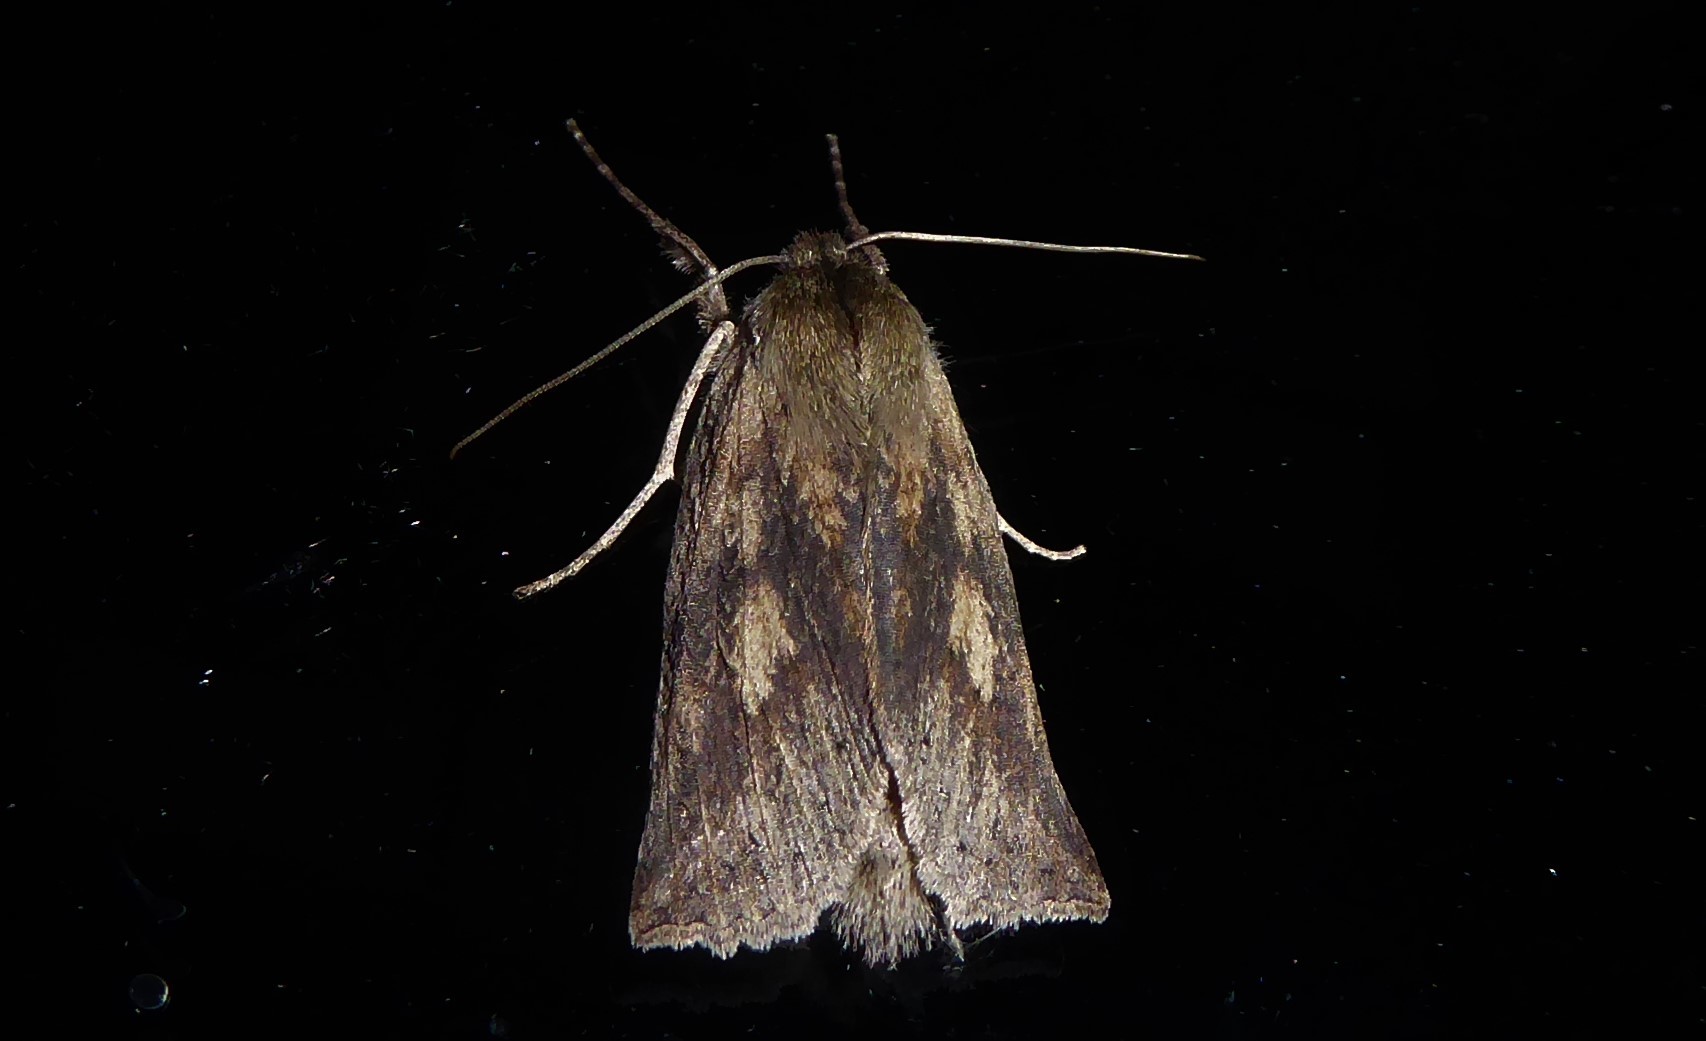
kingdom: Animalia
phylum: Arthropoda
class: Insecta
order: Lepidoptera
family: Geometridae
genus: Declana
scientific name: Declana leptomera
